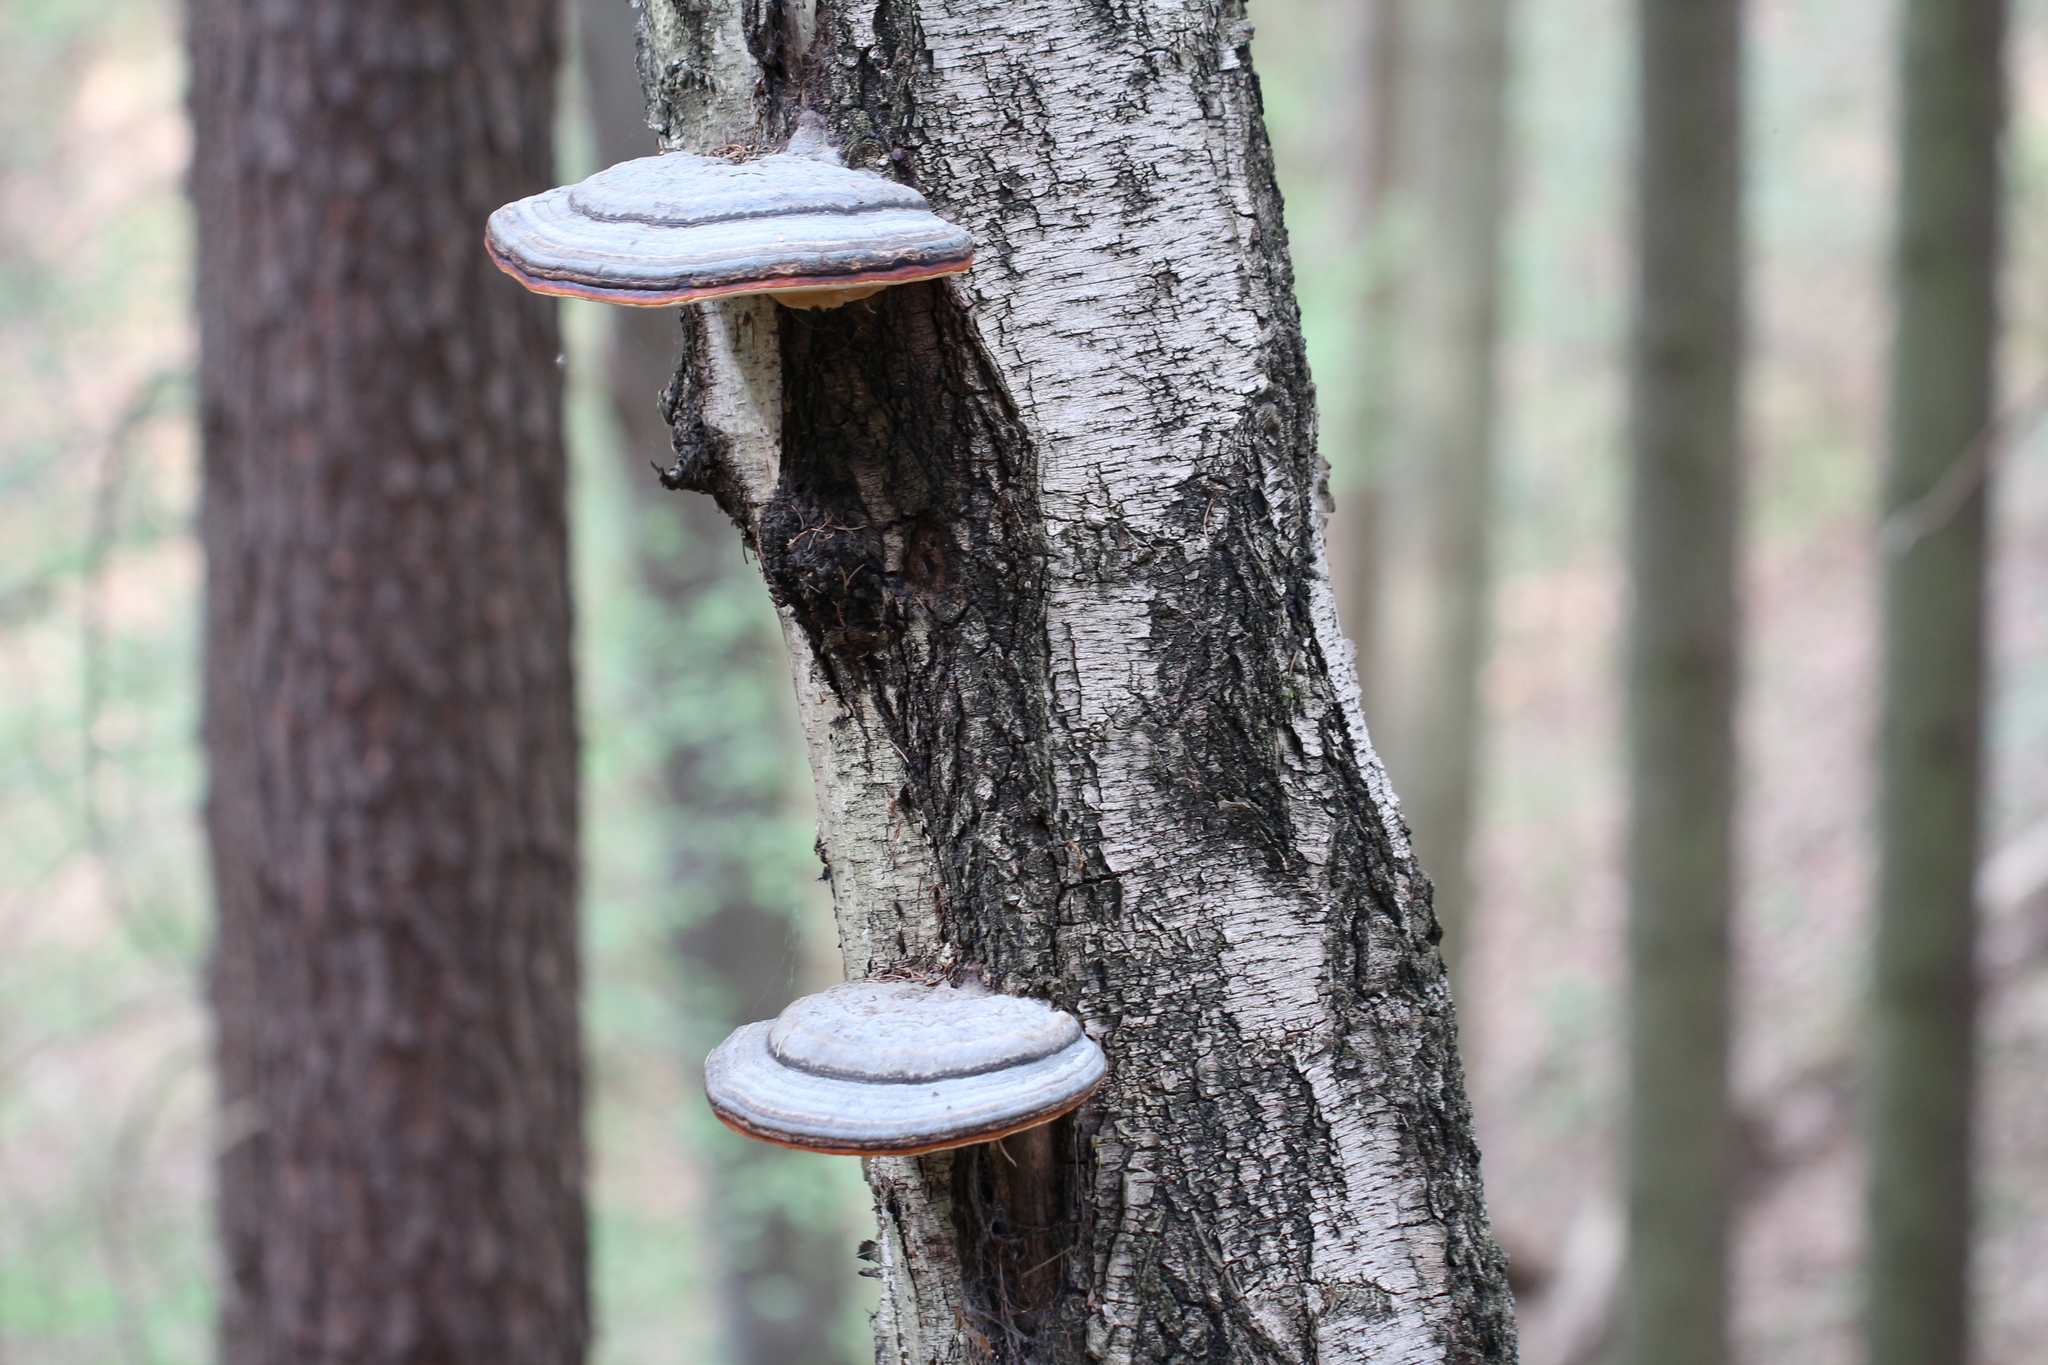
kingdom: Fungi
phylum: Basidiomycota
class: Agaricomycetes
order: Polyporales
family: Fomitopsidaceae
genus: Fomitopsis
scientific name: Fomitopsis pinicola
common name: Red-belted bracket
